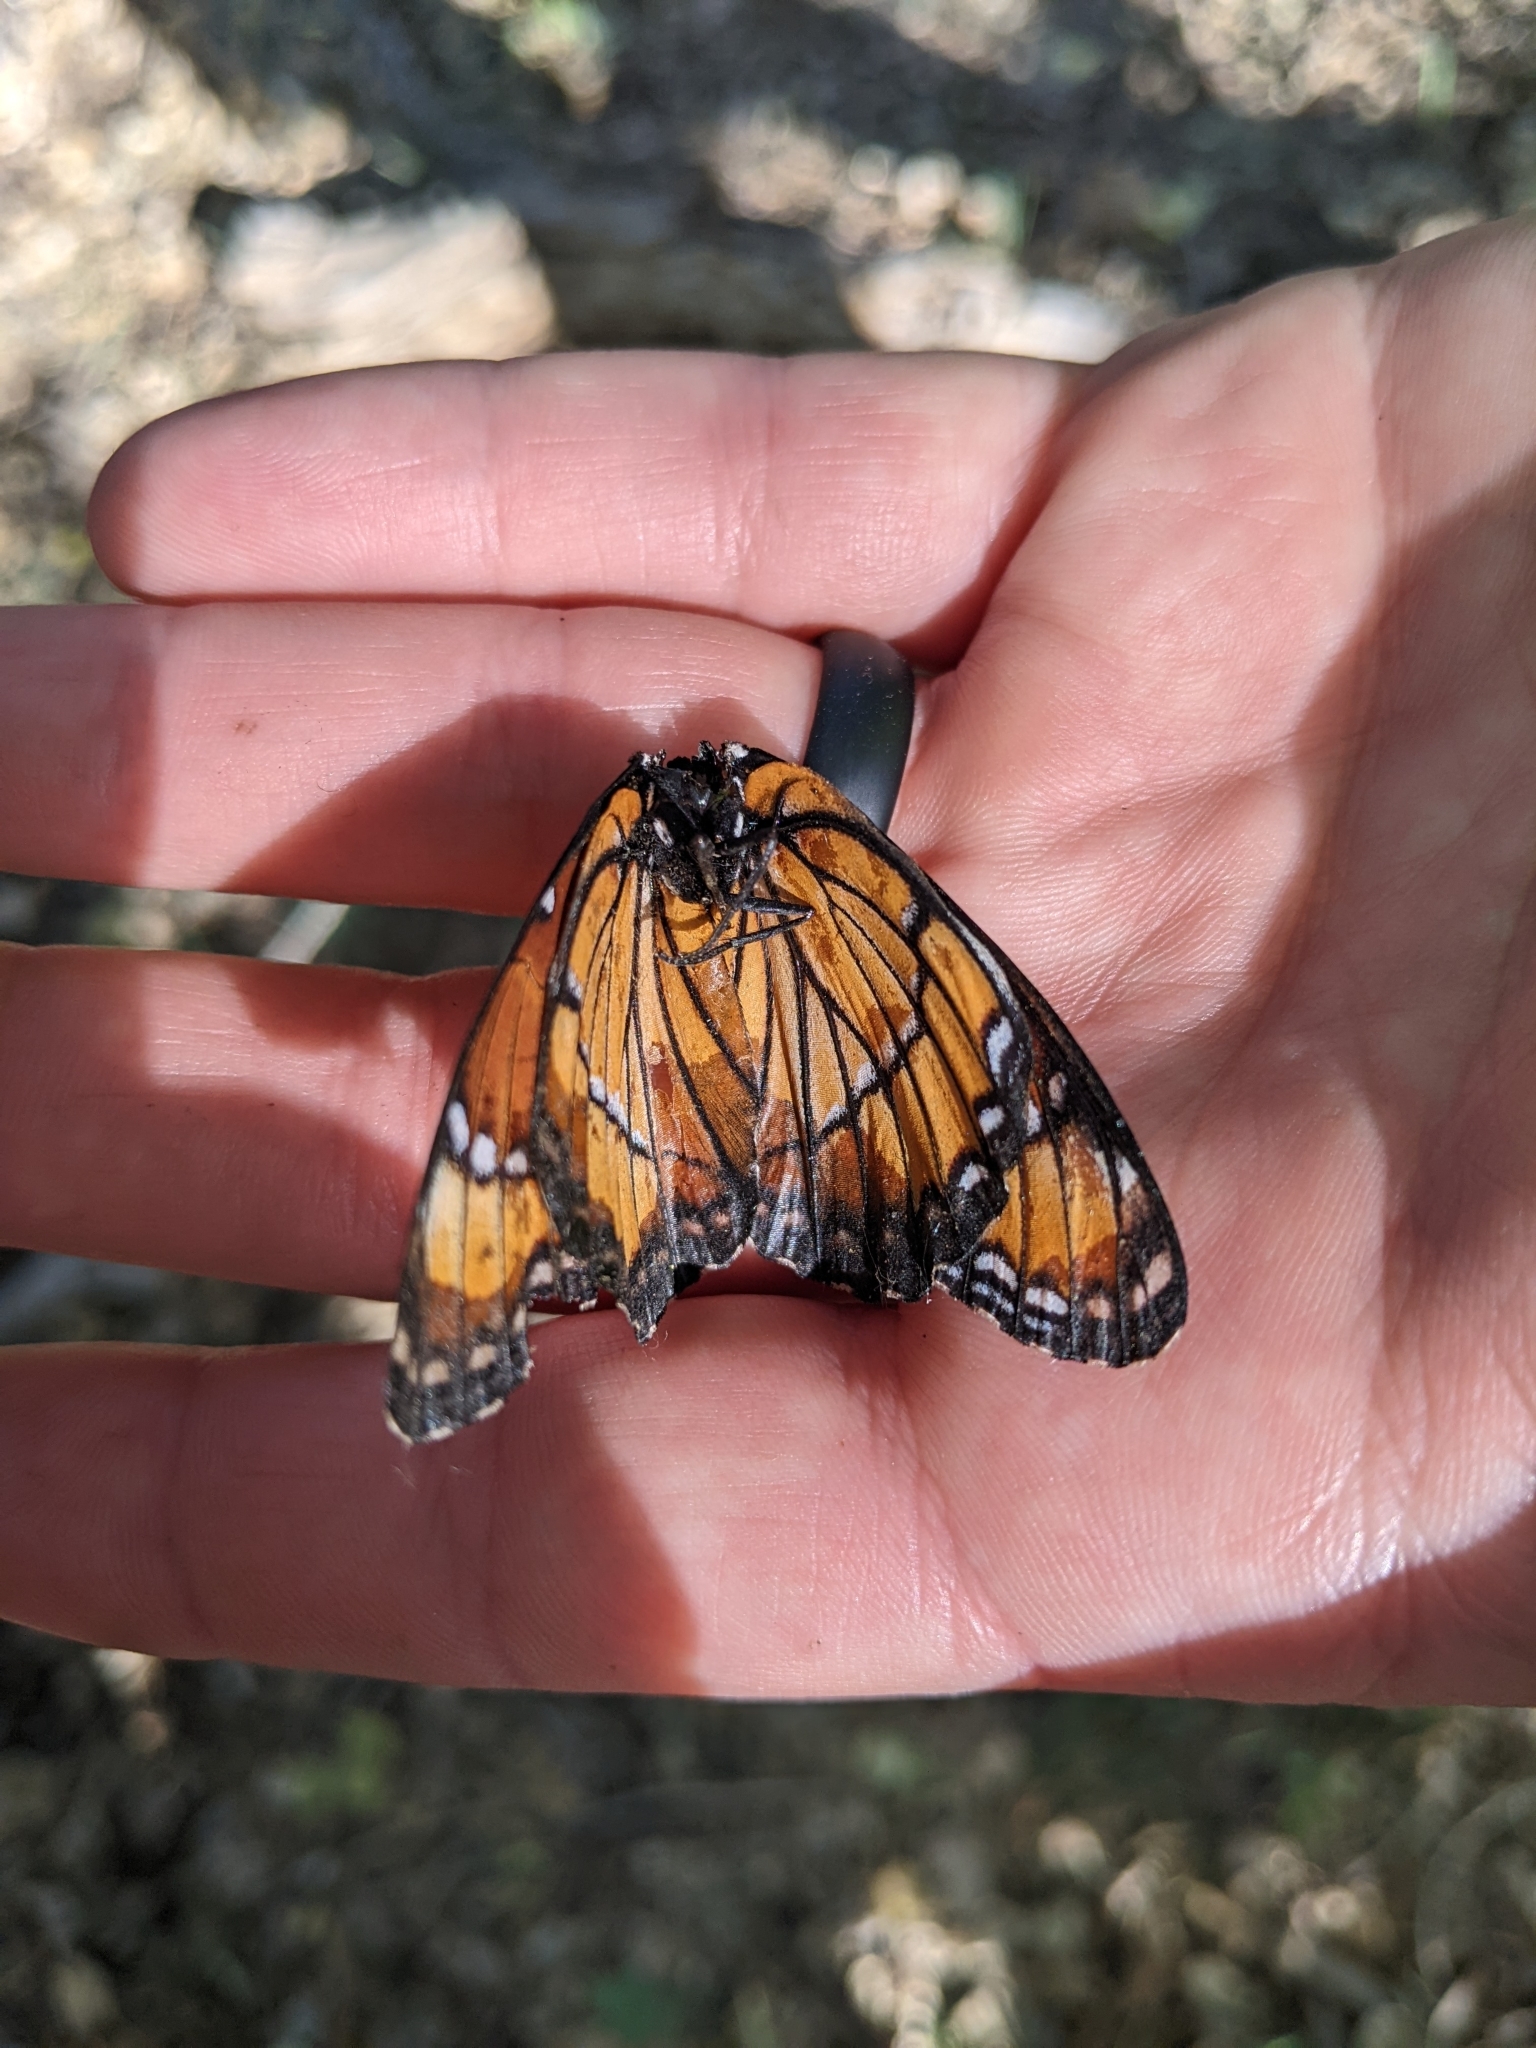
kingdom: Animalia
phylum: Arthropoda
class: Insecta
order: Lepidoptera
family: Nymphalidae
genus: Limenitis
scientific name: Limenitis archippus
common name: Viceroy
